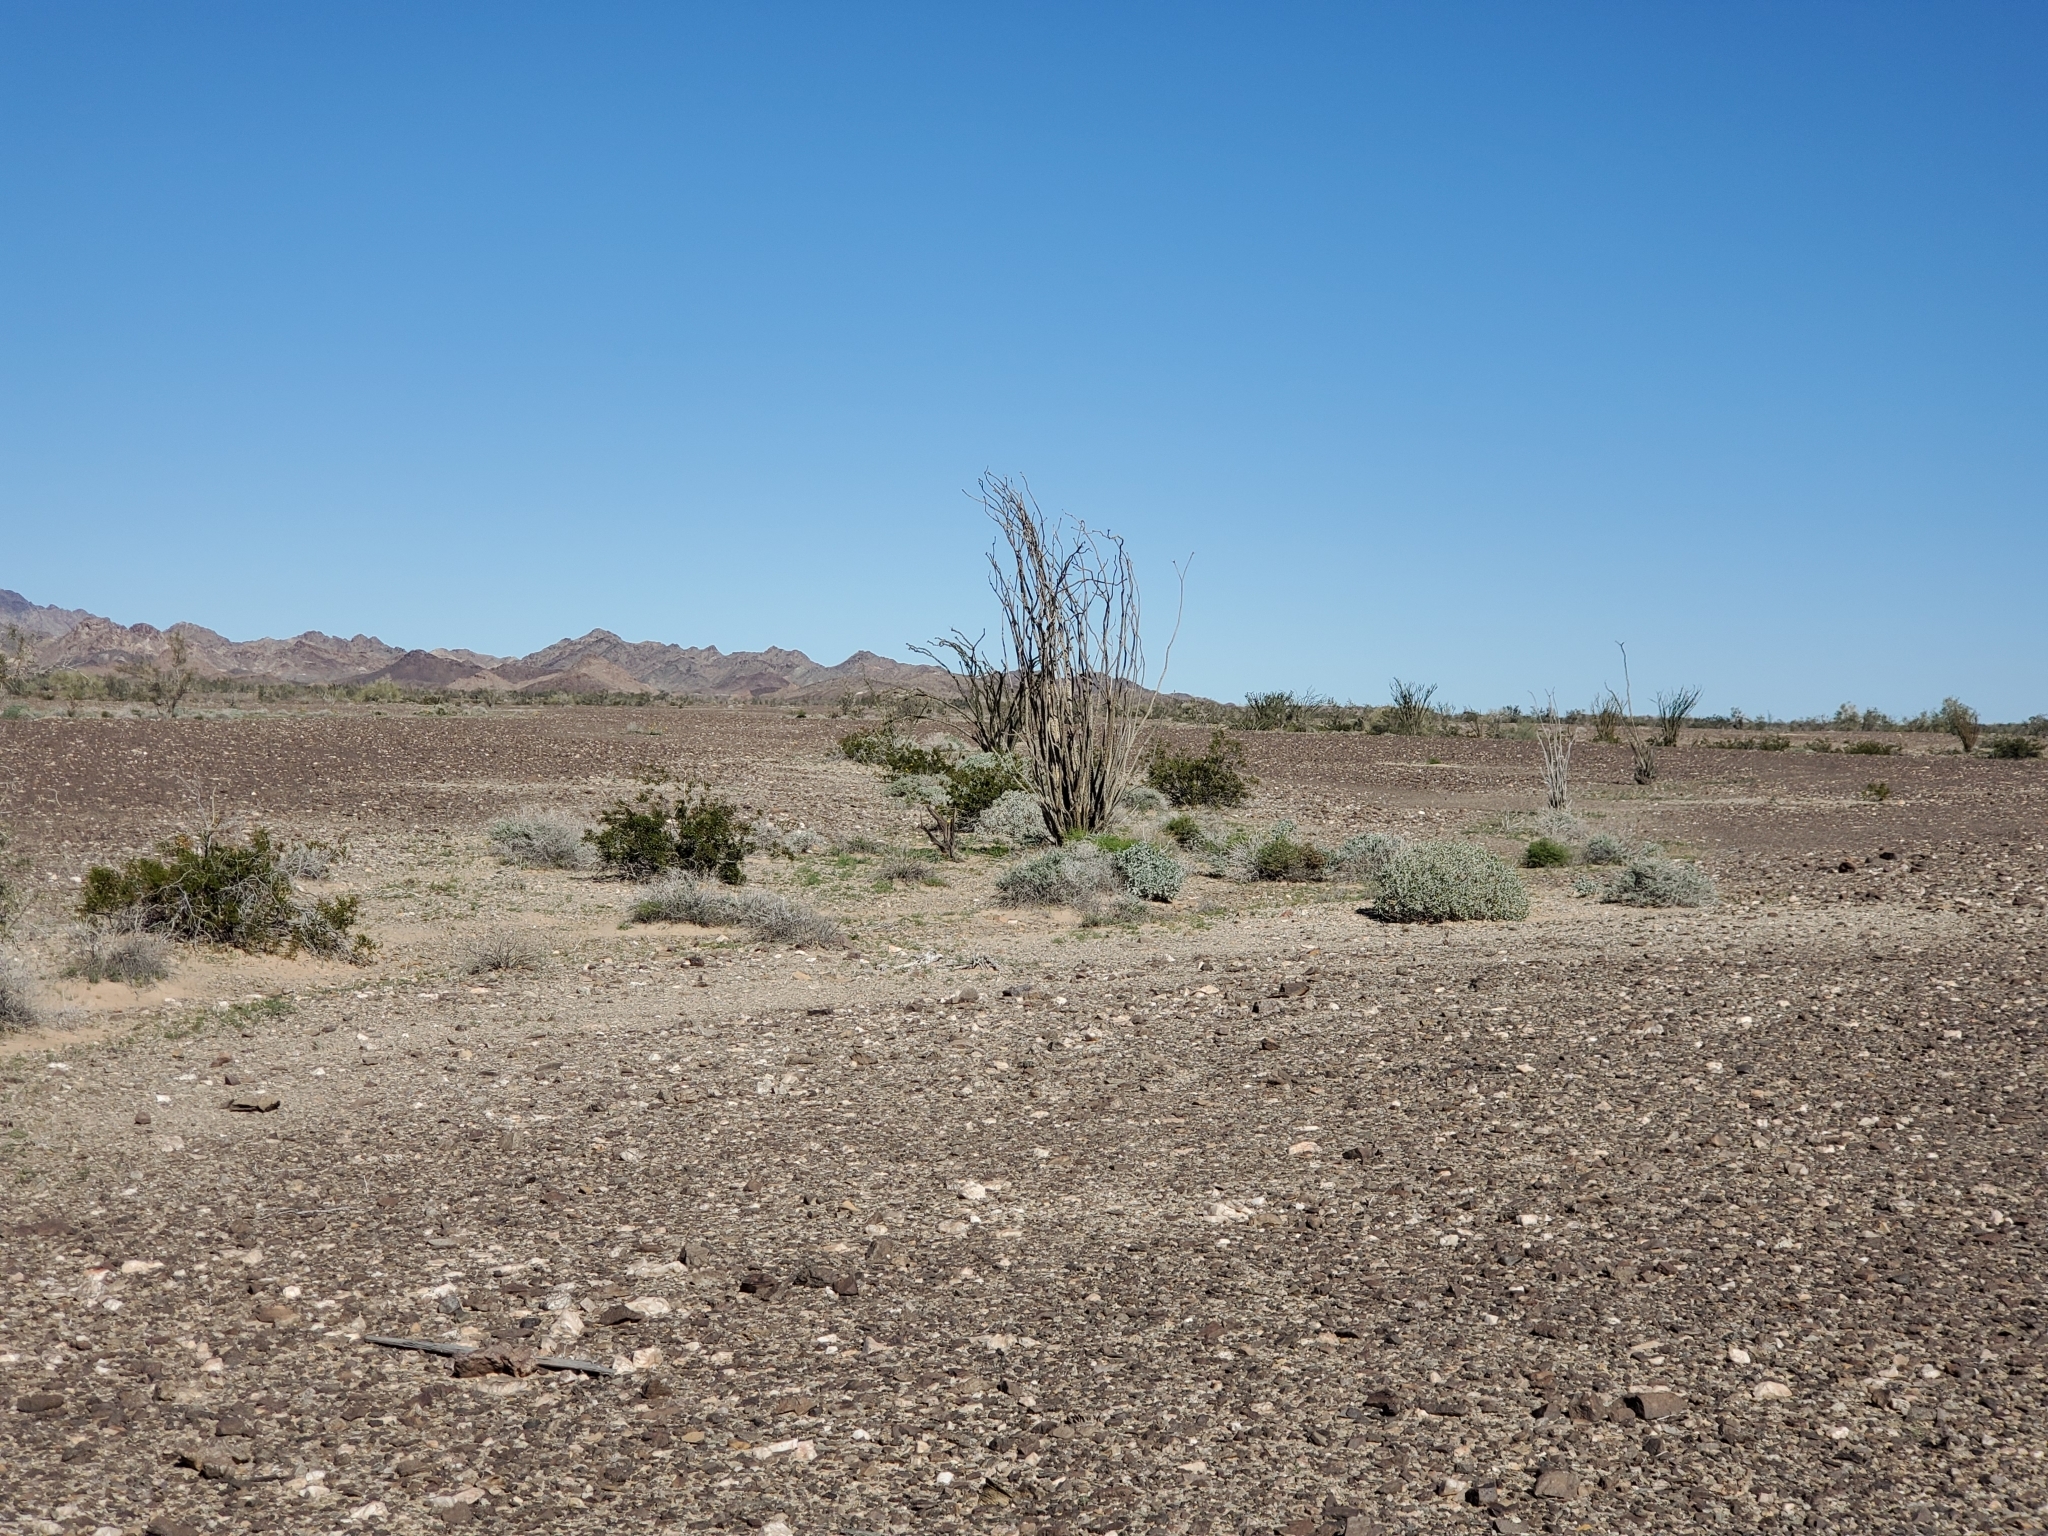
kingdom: Plantae
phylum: Tracheophyta
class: Magnoliopsida
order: Ericales
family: Fouquieriaceae
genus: Fouquieria
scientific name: Fouquieria splendens
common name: Vine-cactus
